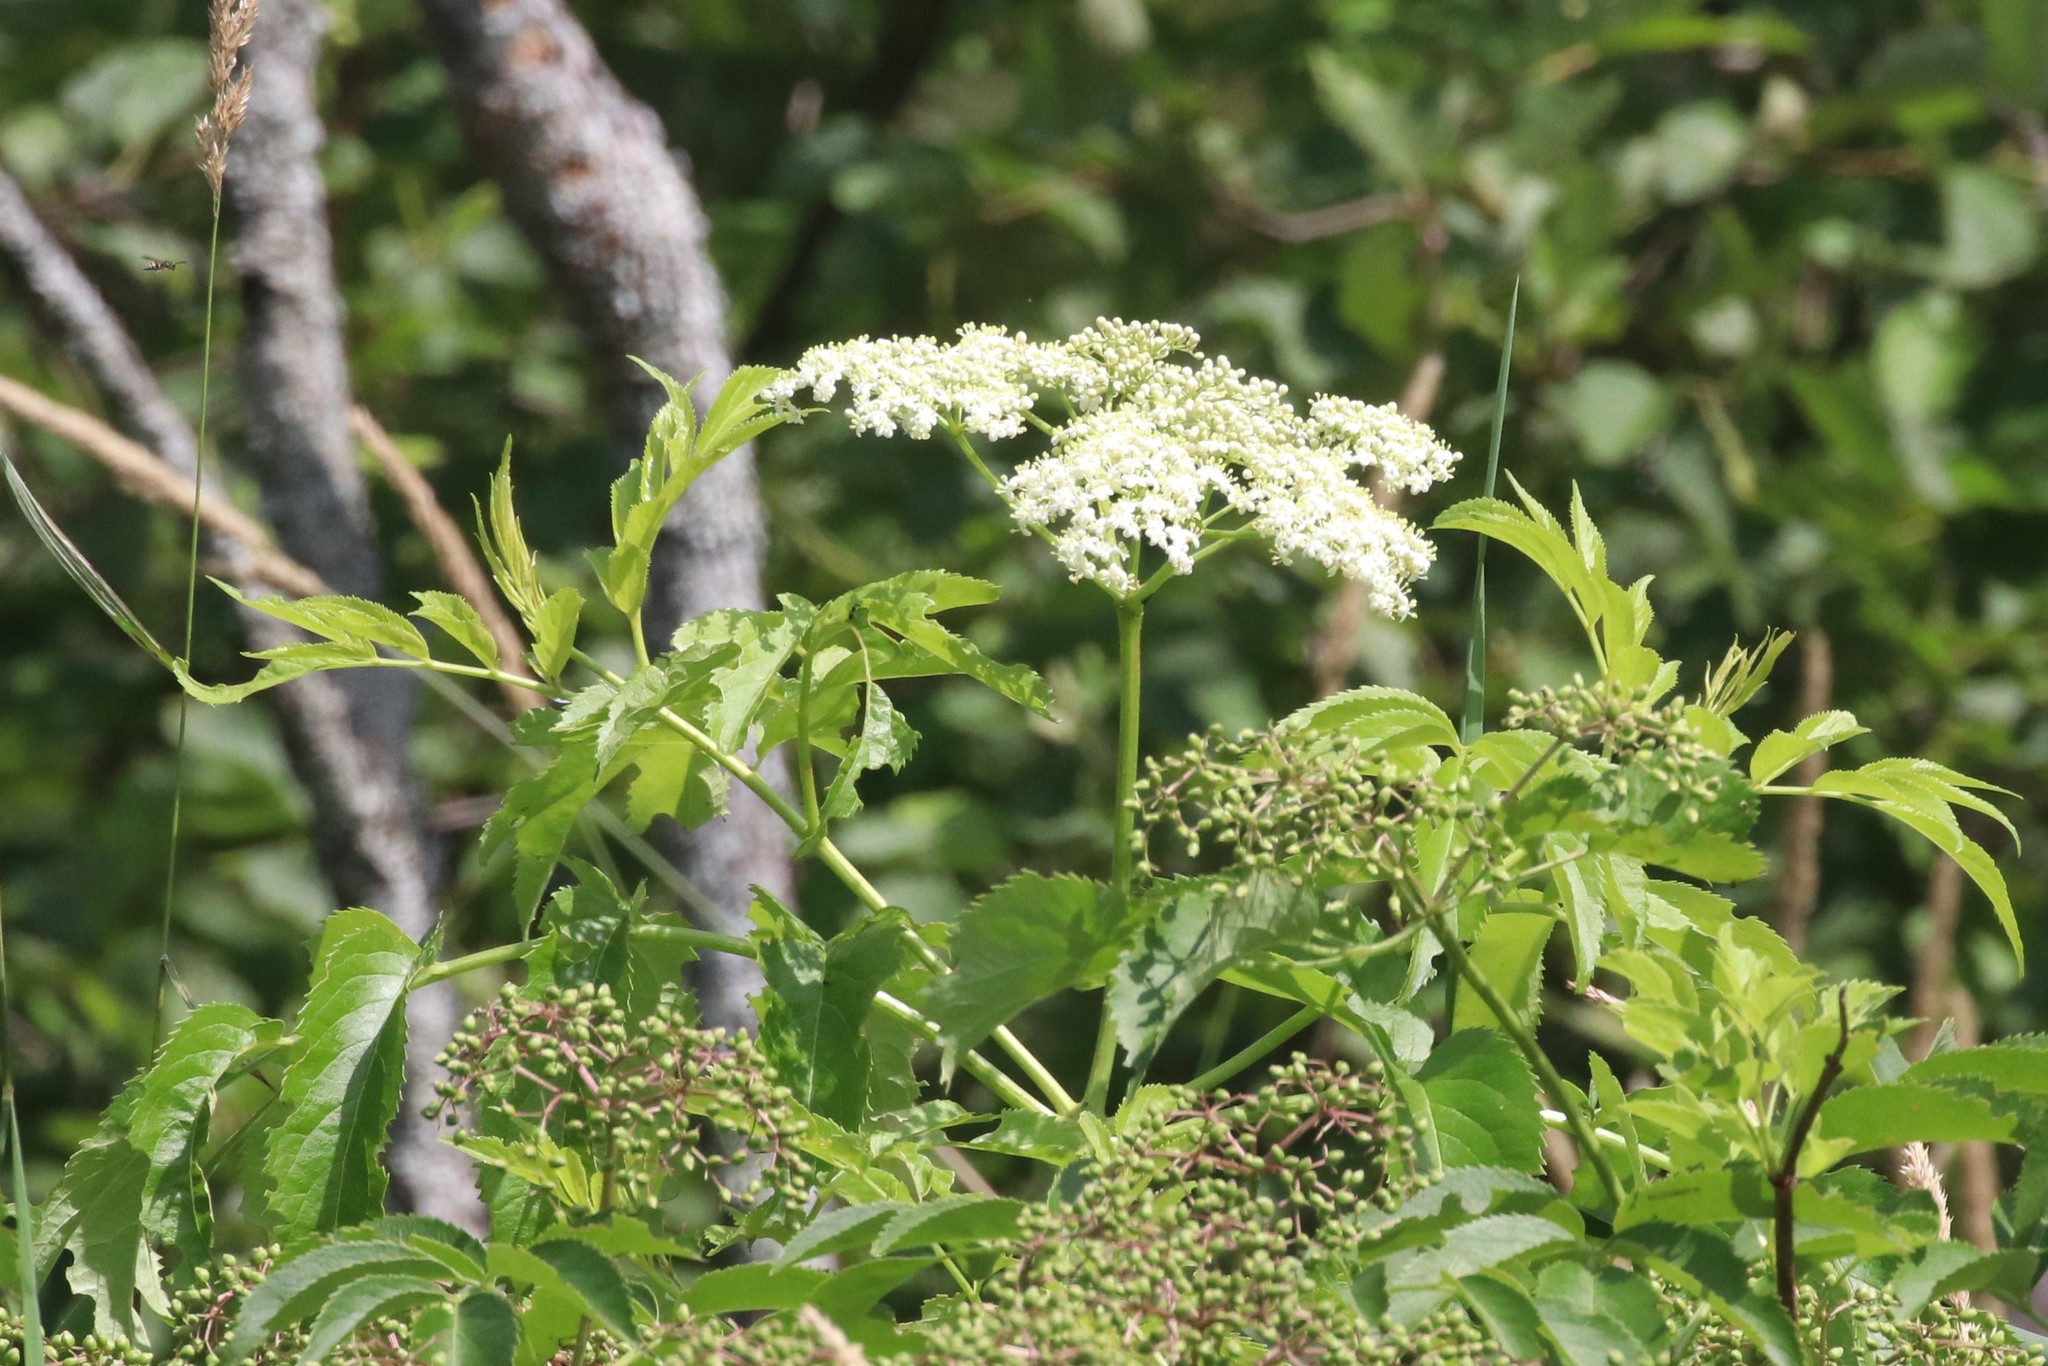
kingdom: Plantae
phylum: Tracheophyta
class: Magnoliopsida
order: Dipsacales
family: Viburnaceae
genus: Sambucus
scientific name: Sambucus canadensis
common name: American elder
